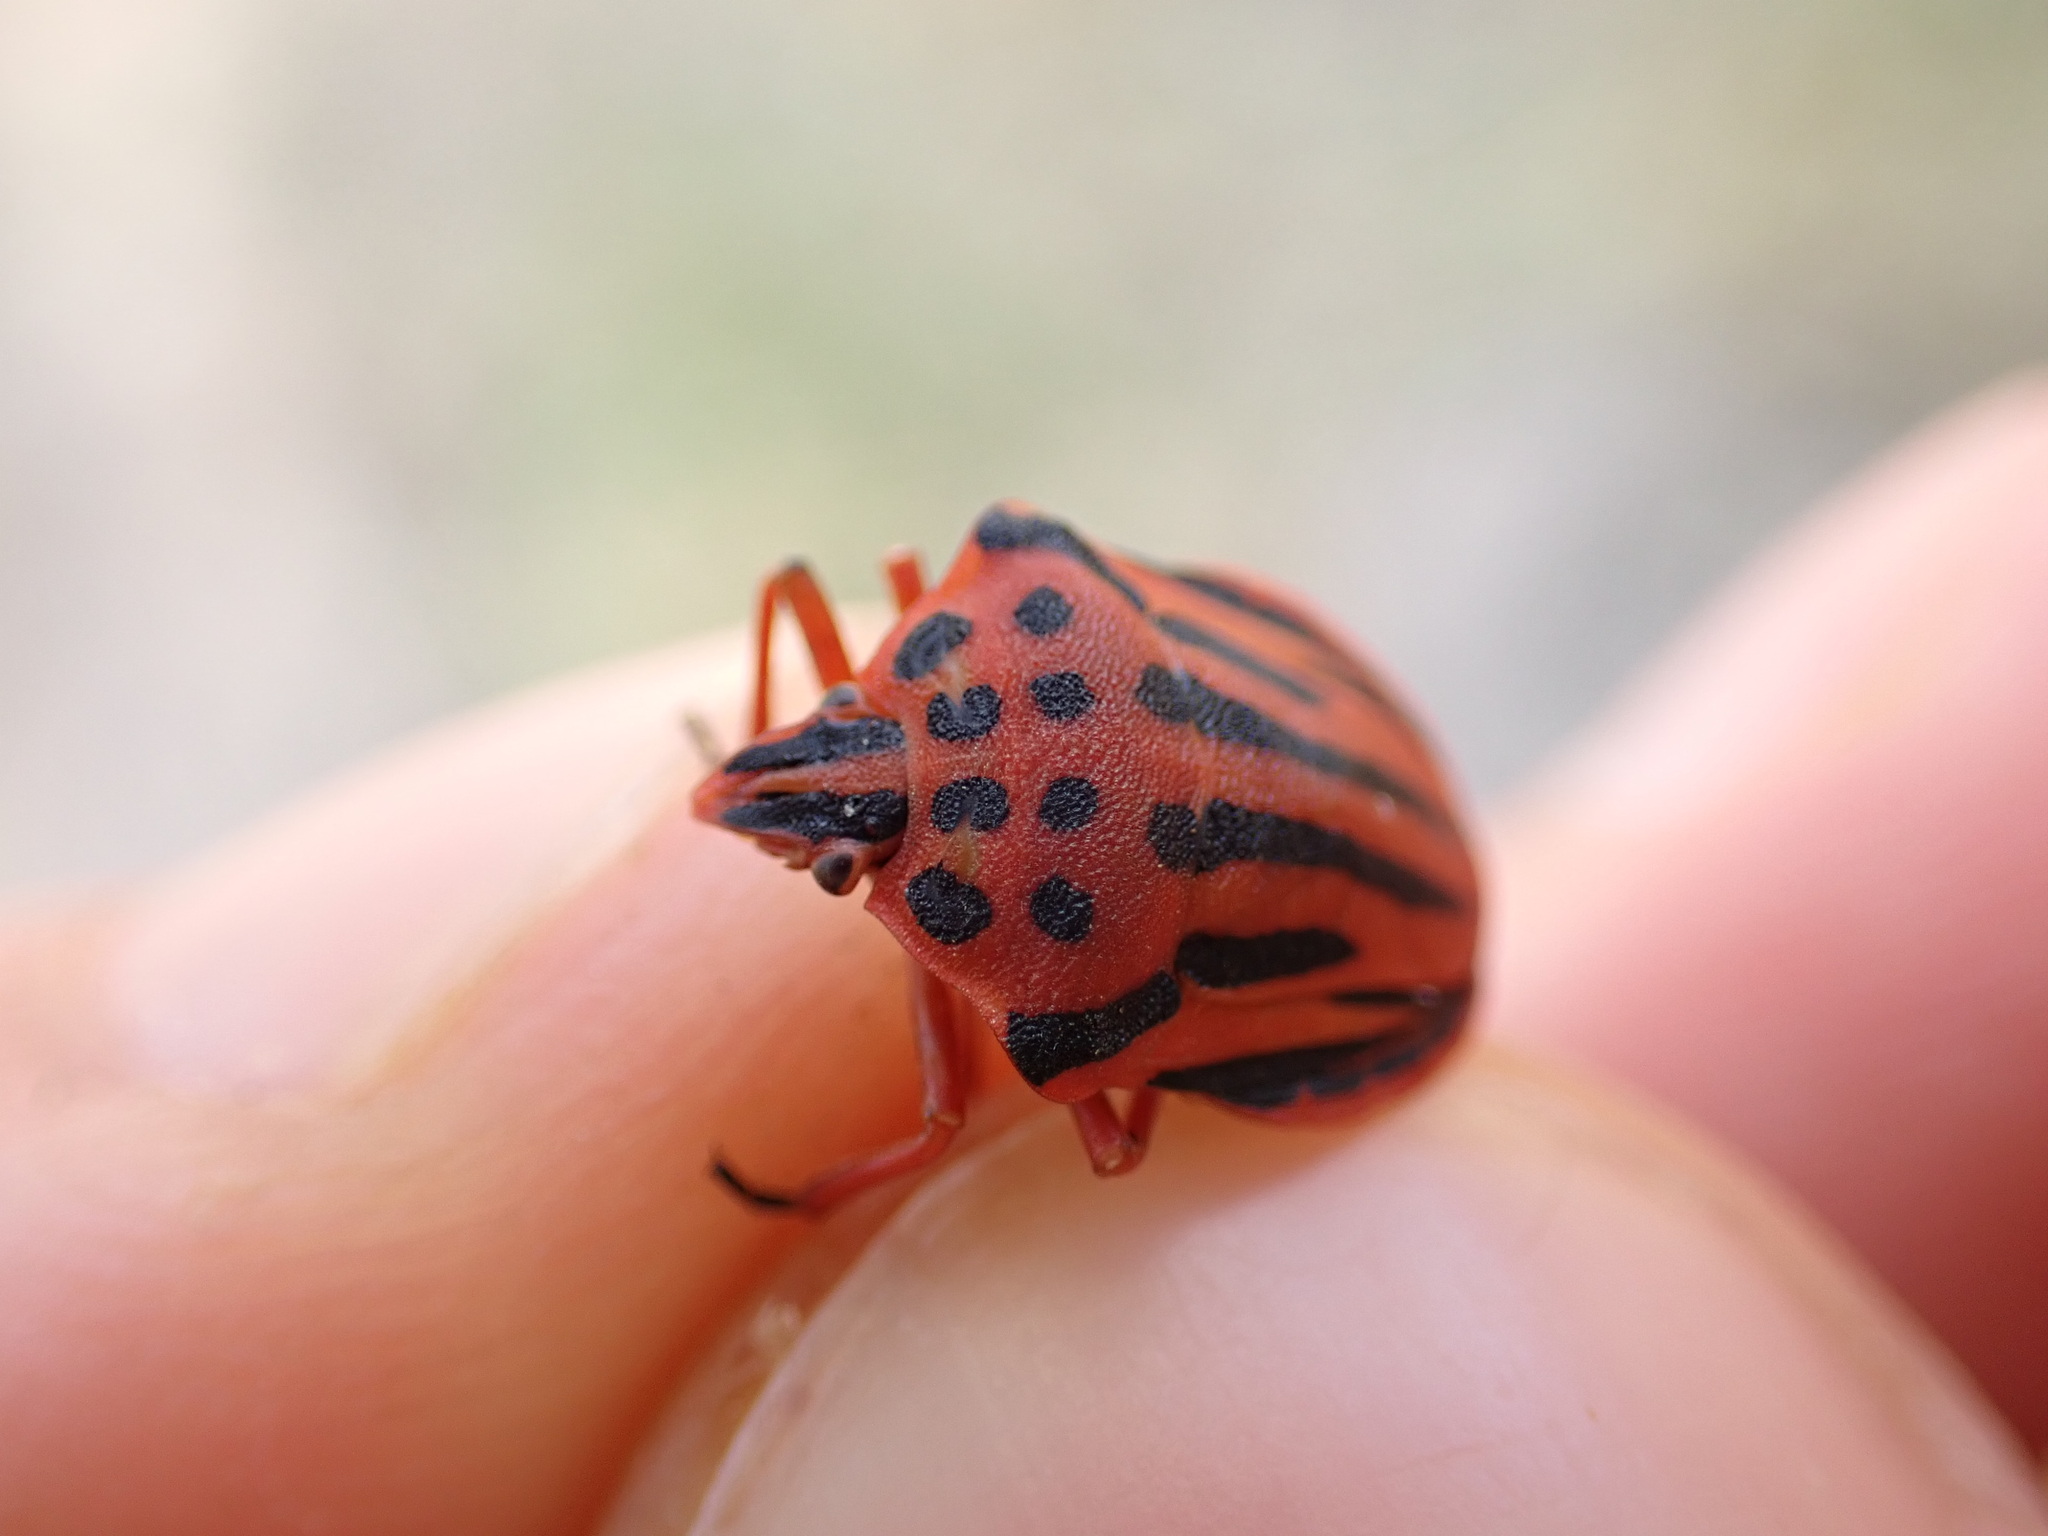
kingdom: Animalia
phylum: Arthropoda
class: Insecta
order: Hemiptera
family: Pentatomidae
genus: Graphosoma
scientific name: Graphosoma semipunctatum
